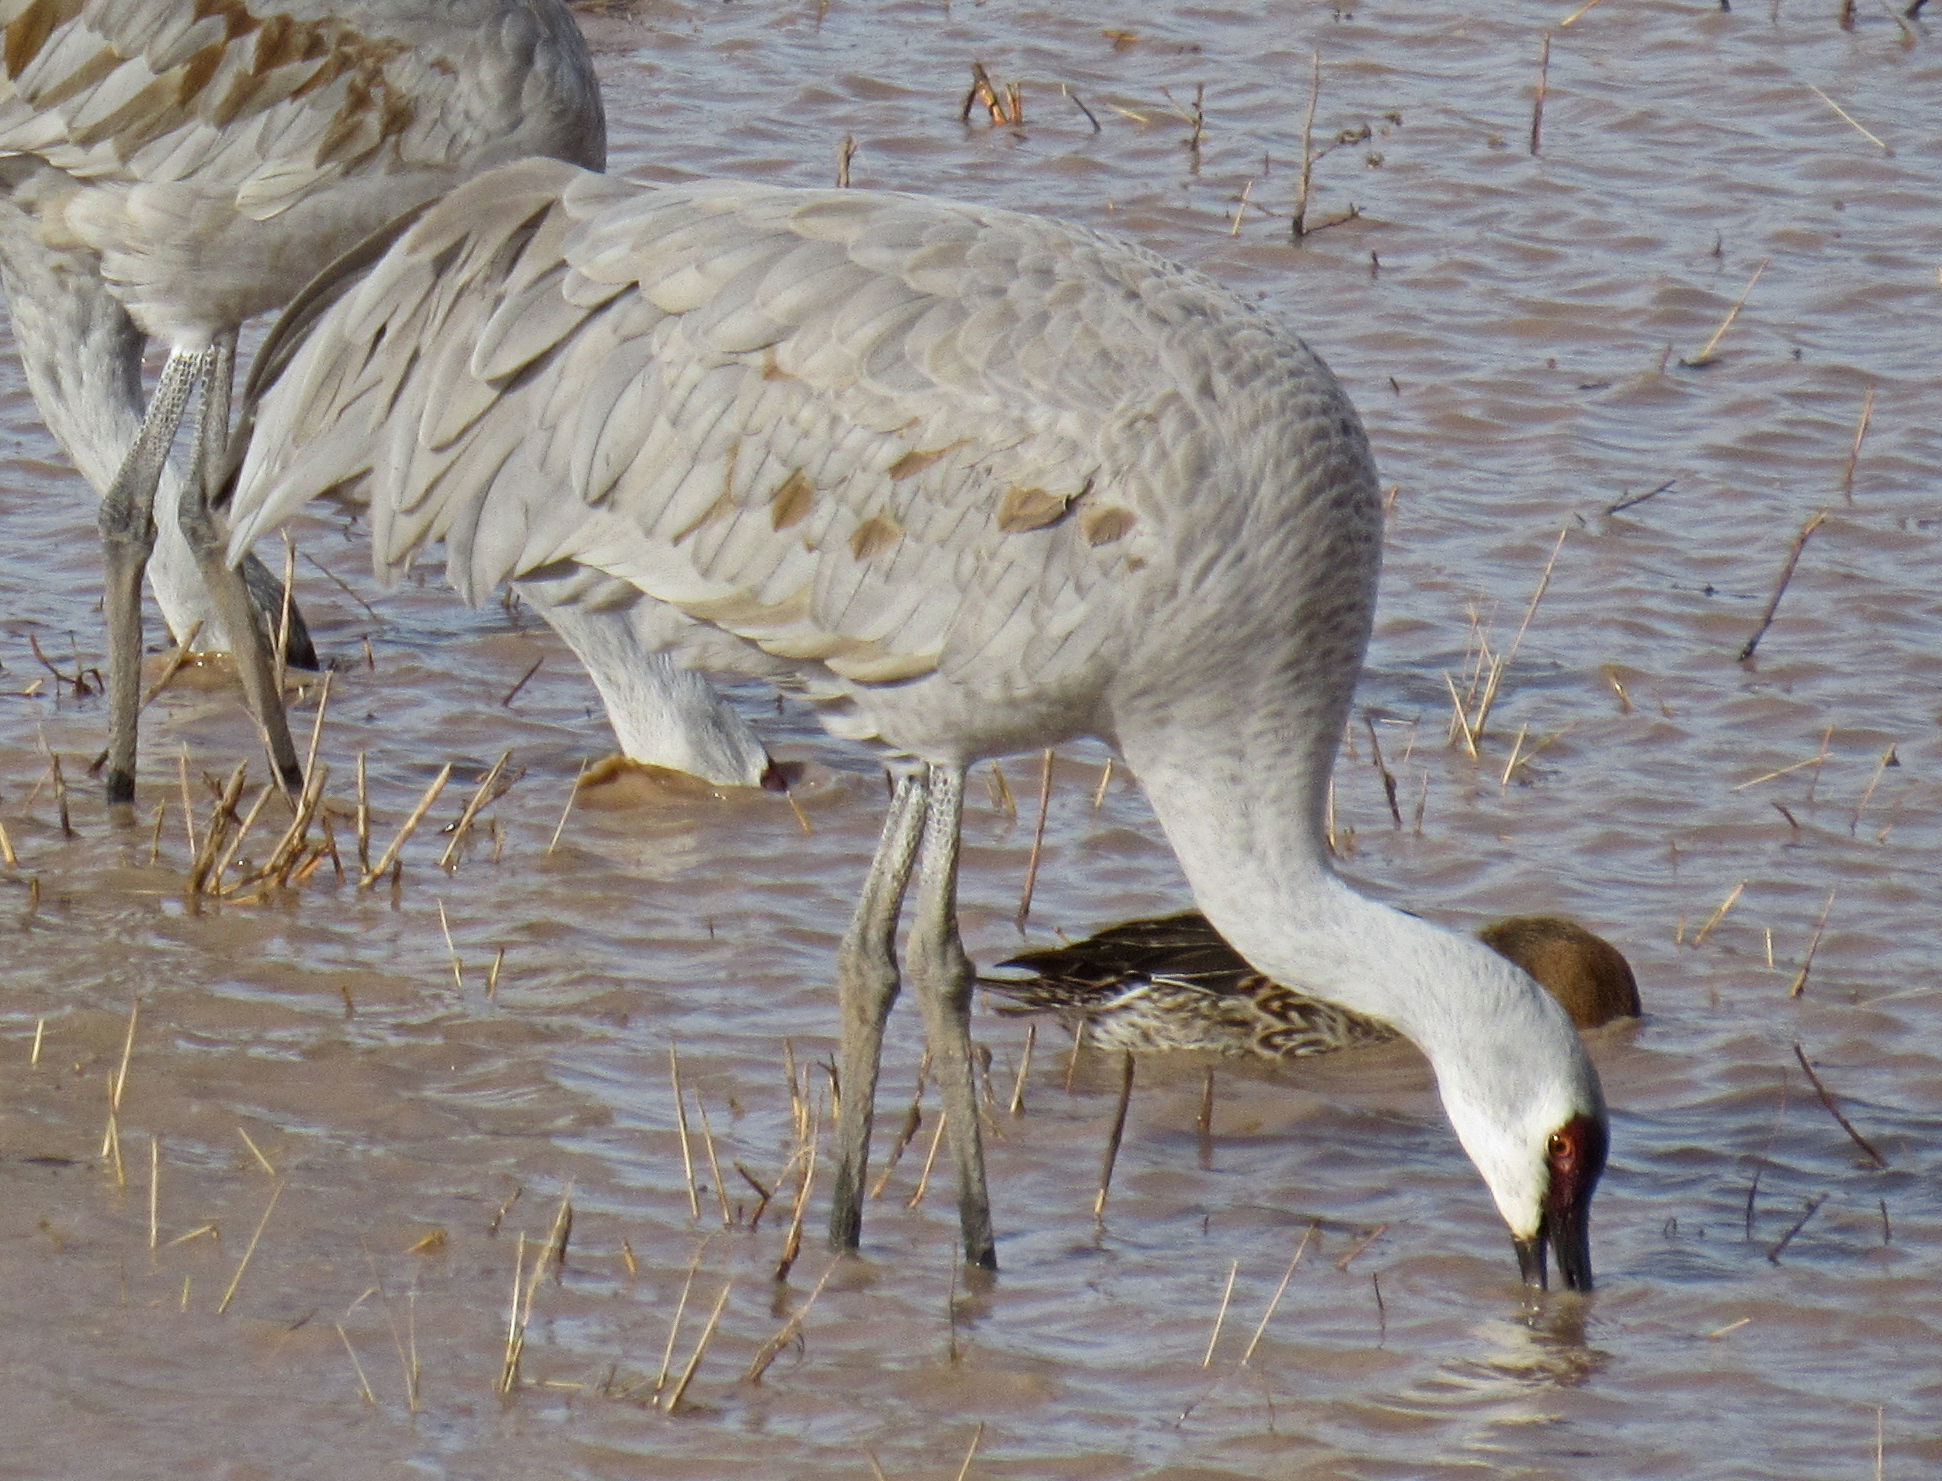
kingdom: Animalia
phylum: Chordata
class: Aves
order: Gruiformes
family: Gruidae
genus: Grus
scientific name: Grus canadensis
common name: Sandhill crane
